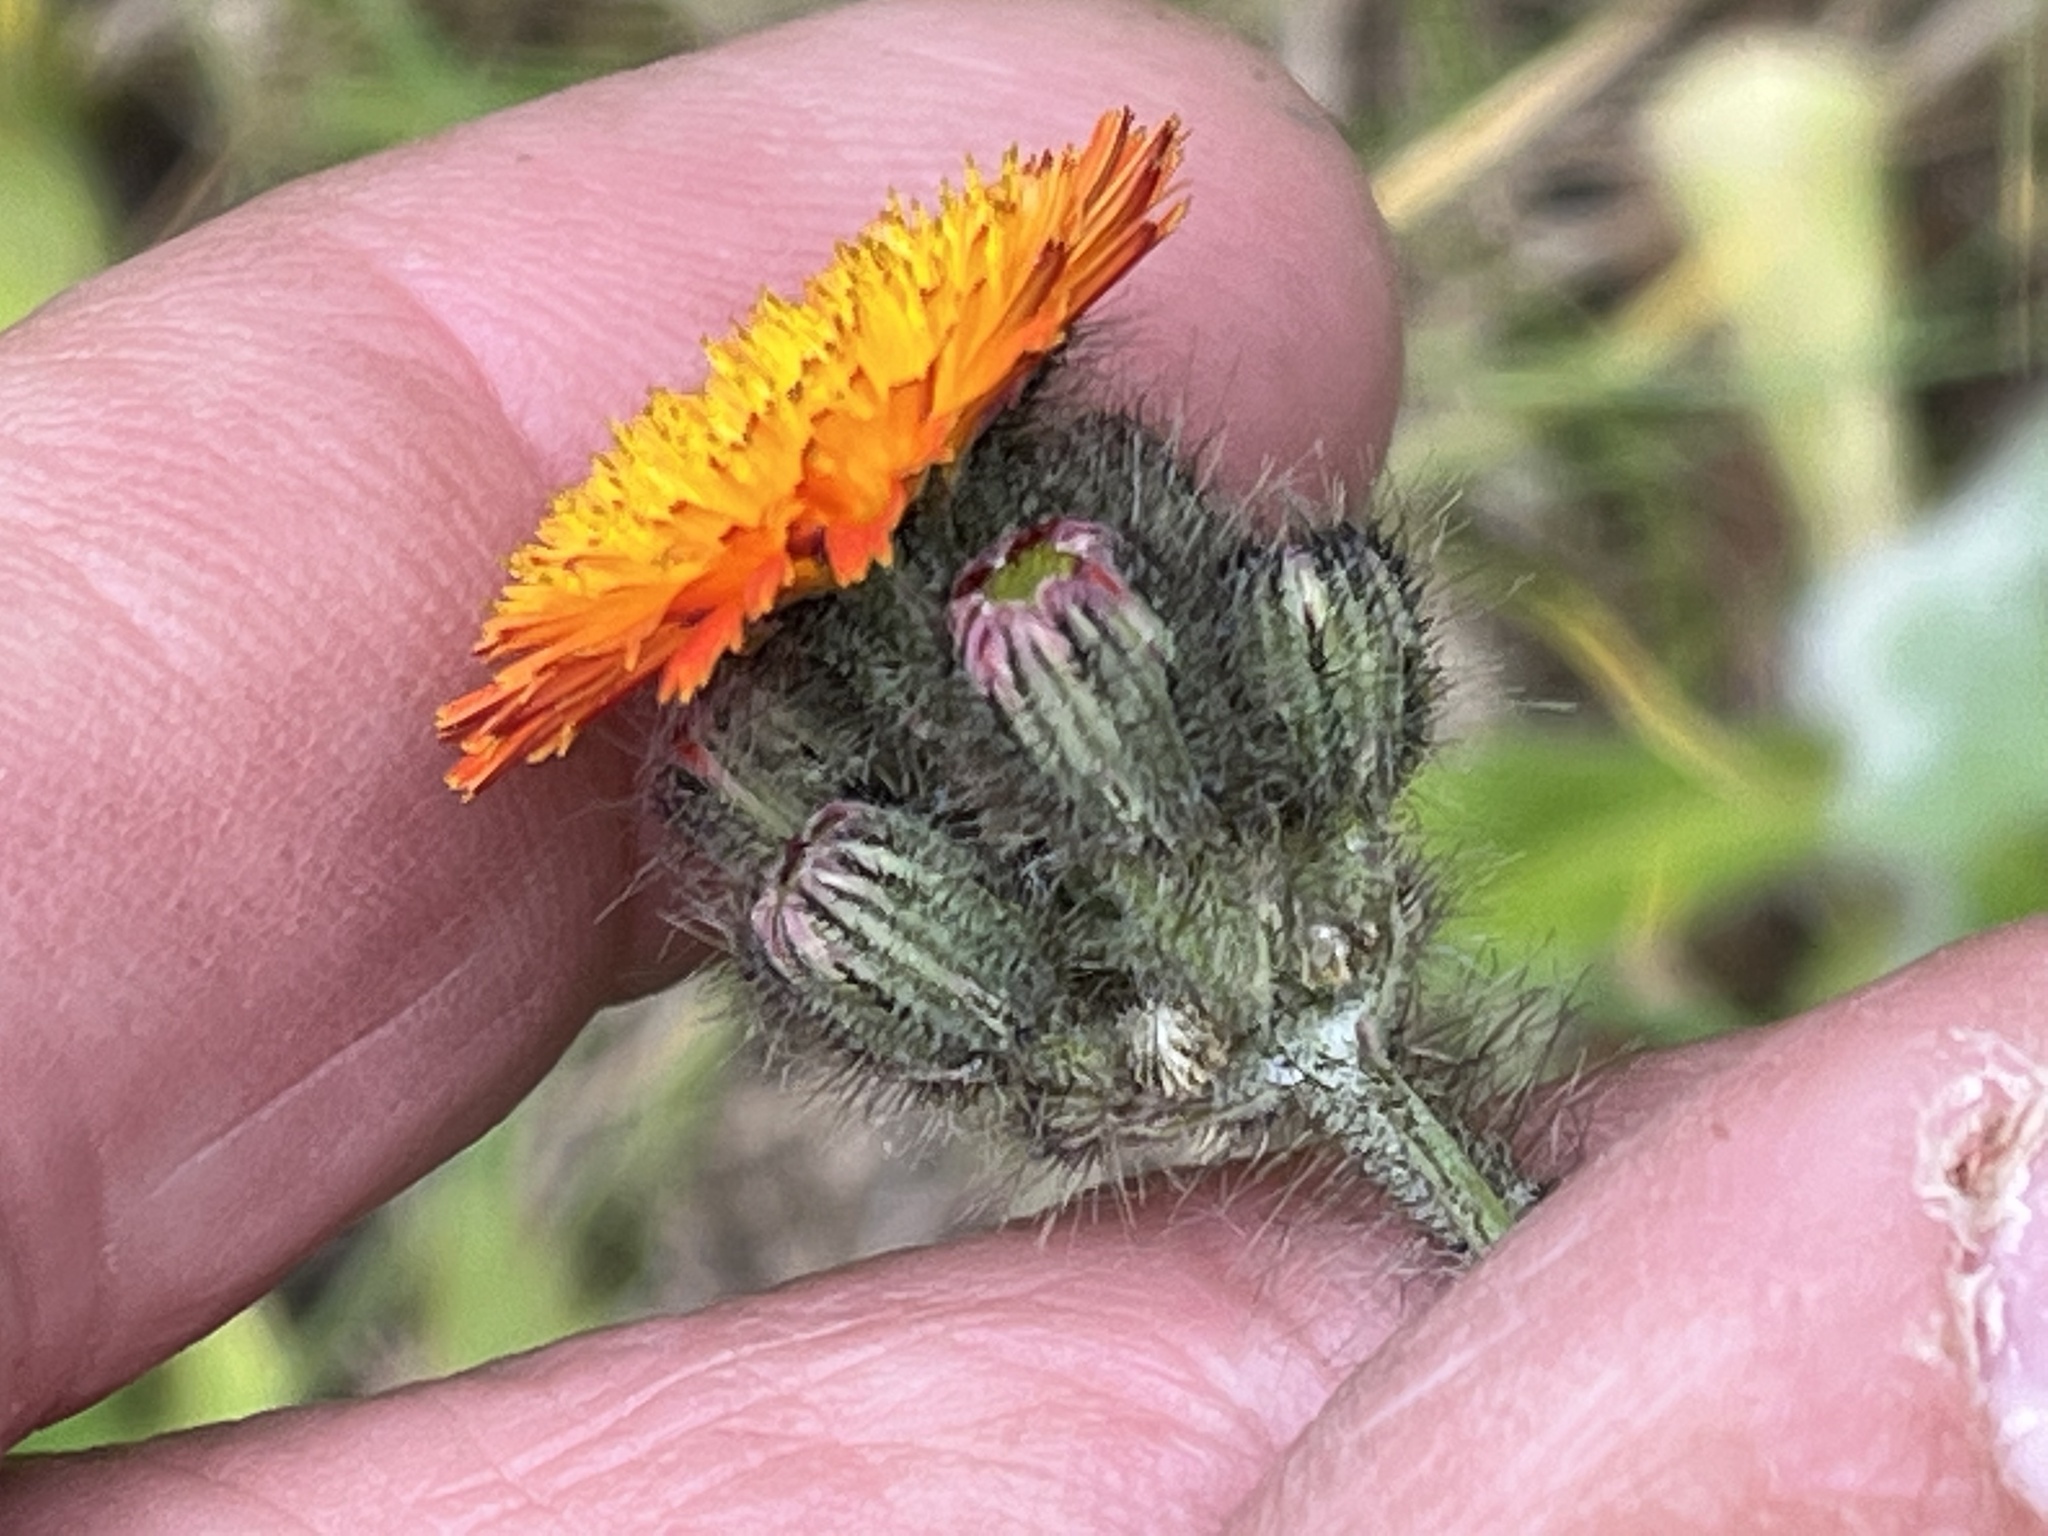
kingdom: Plantae
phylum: Tracheophyta
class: Magnoliopsida
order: Asterales
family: Asteraceae
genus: Pilosella
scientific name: Pilosella aurantiaca
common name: Fox-and-cubs
